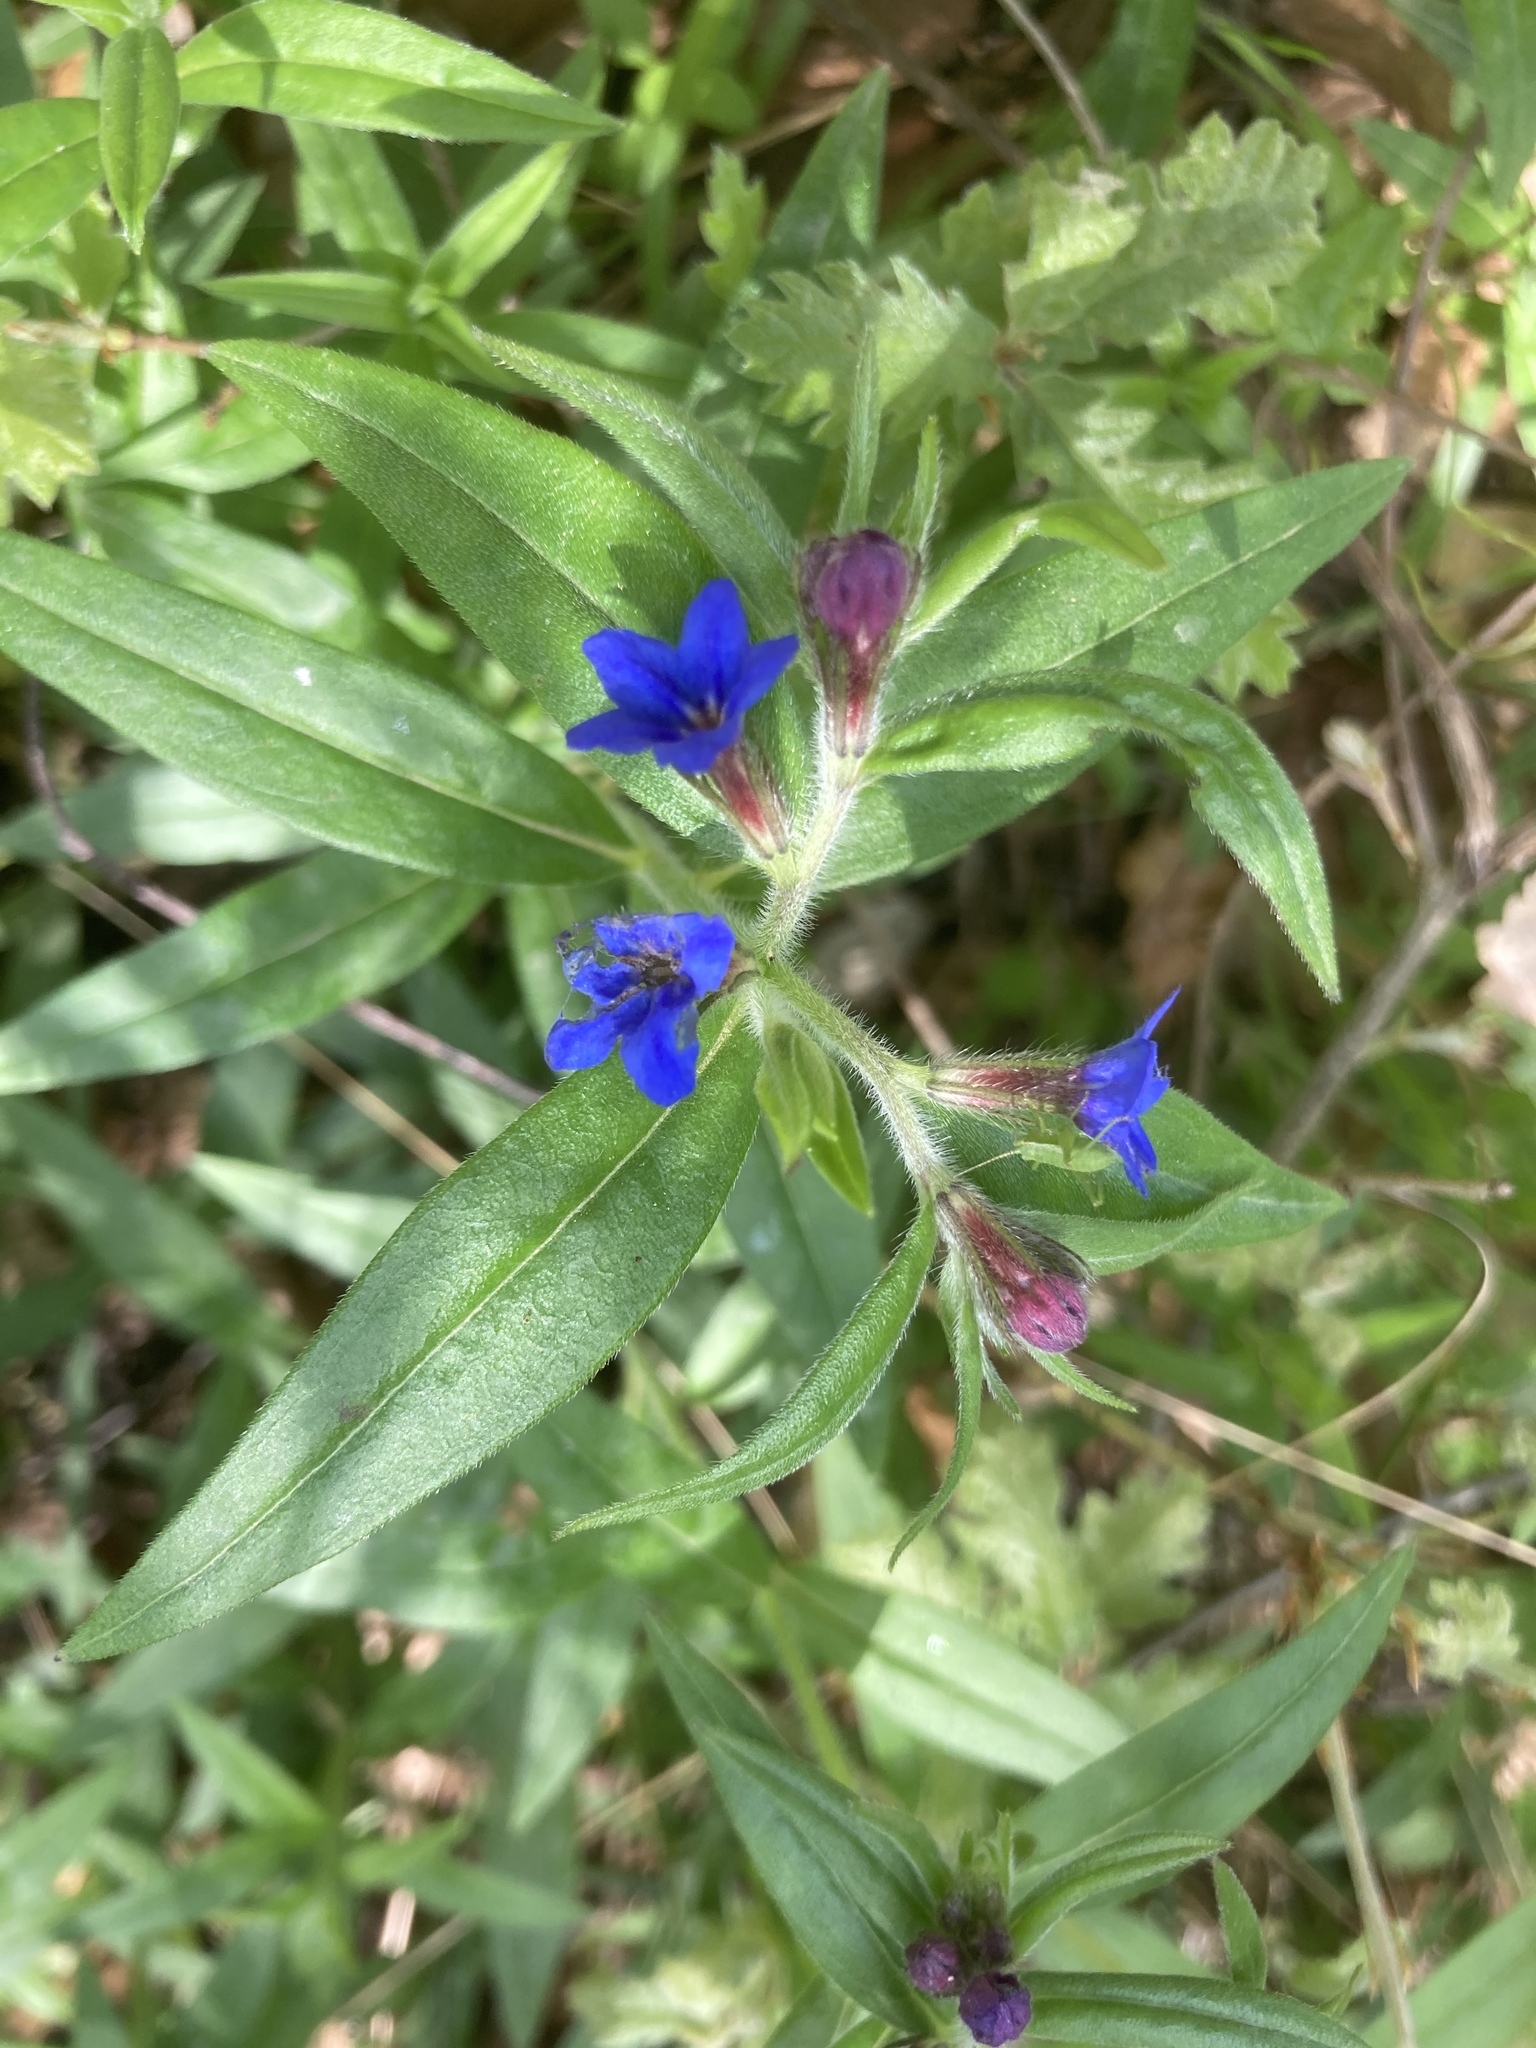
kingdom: Plantae
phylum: Tracheophyta
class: Magnoliopsida
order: Boraginales
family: Boraginaceae
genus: Aegonychon
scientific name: Aegonychon purpurocaeruleum
